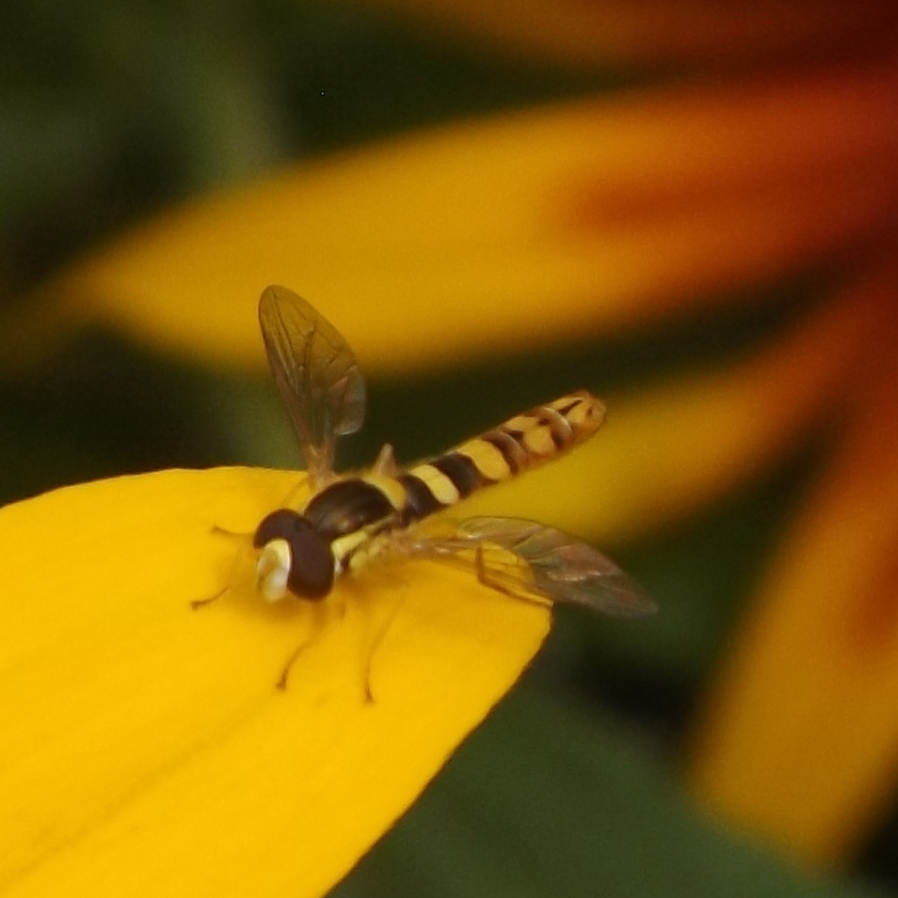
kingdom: Animalia
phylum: Arthropoda
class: Insecta
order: Diptera
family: Syrphidae
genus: Sphaerophoria
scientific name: Sphaerophoria scripta
